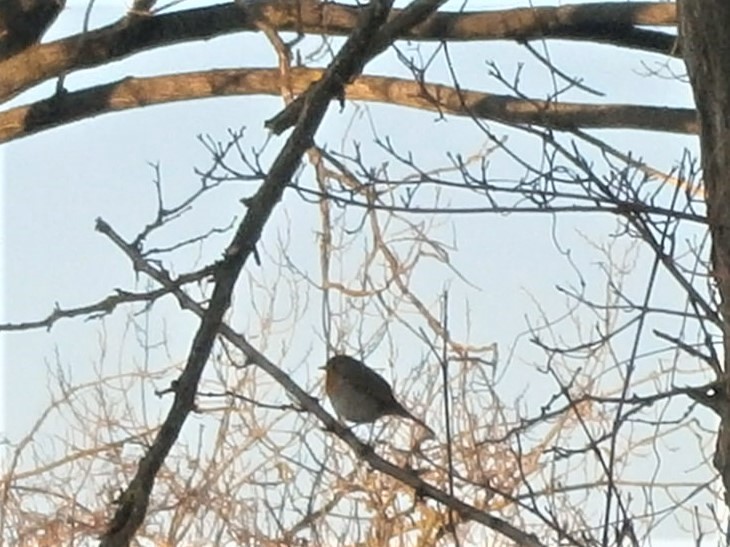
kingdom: Animalia
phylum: Chordata
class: Aves
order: Passeriformes
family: Muscicapidae
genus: Erithacus
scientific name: Erithacus rubecula
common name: European robin
